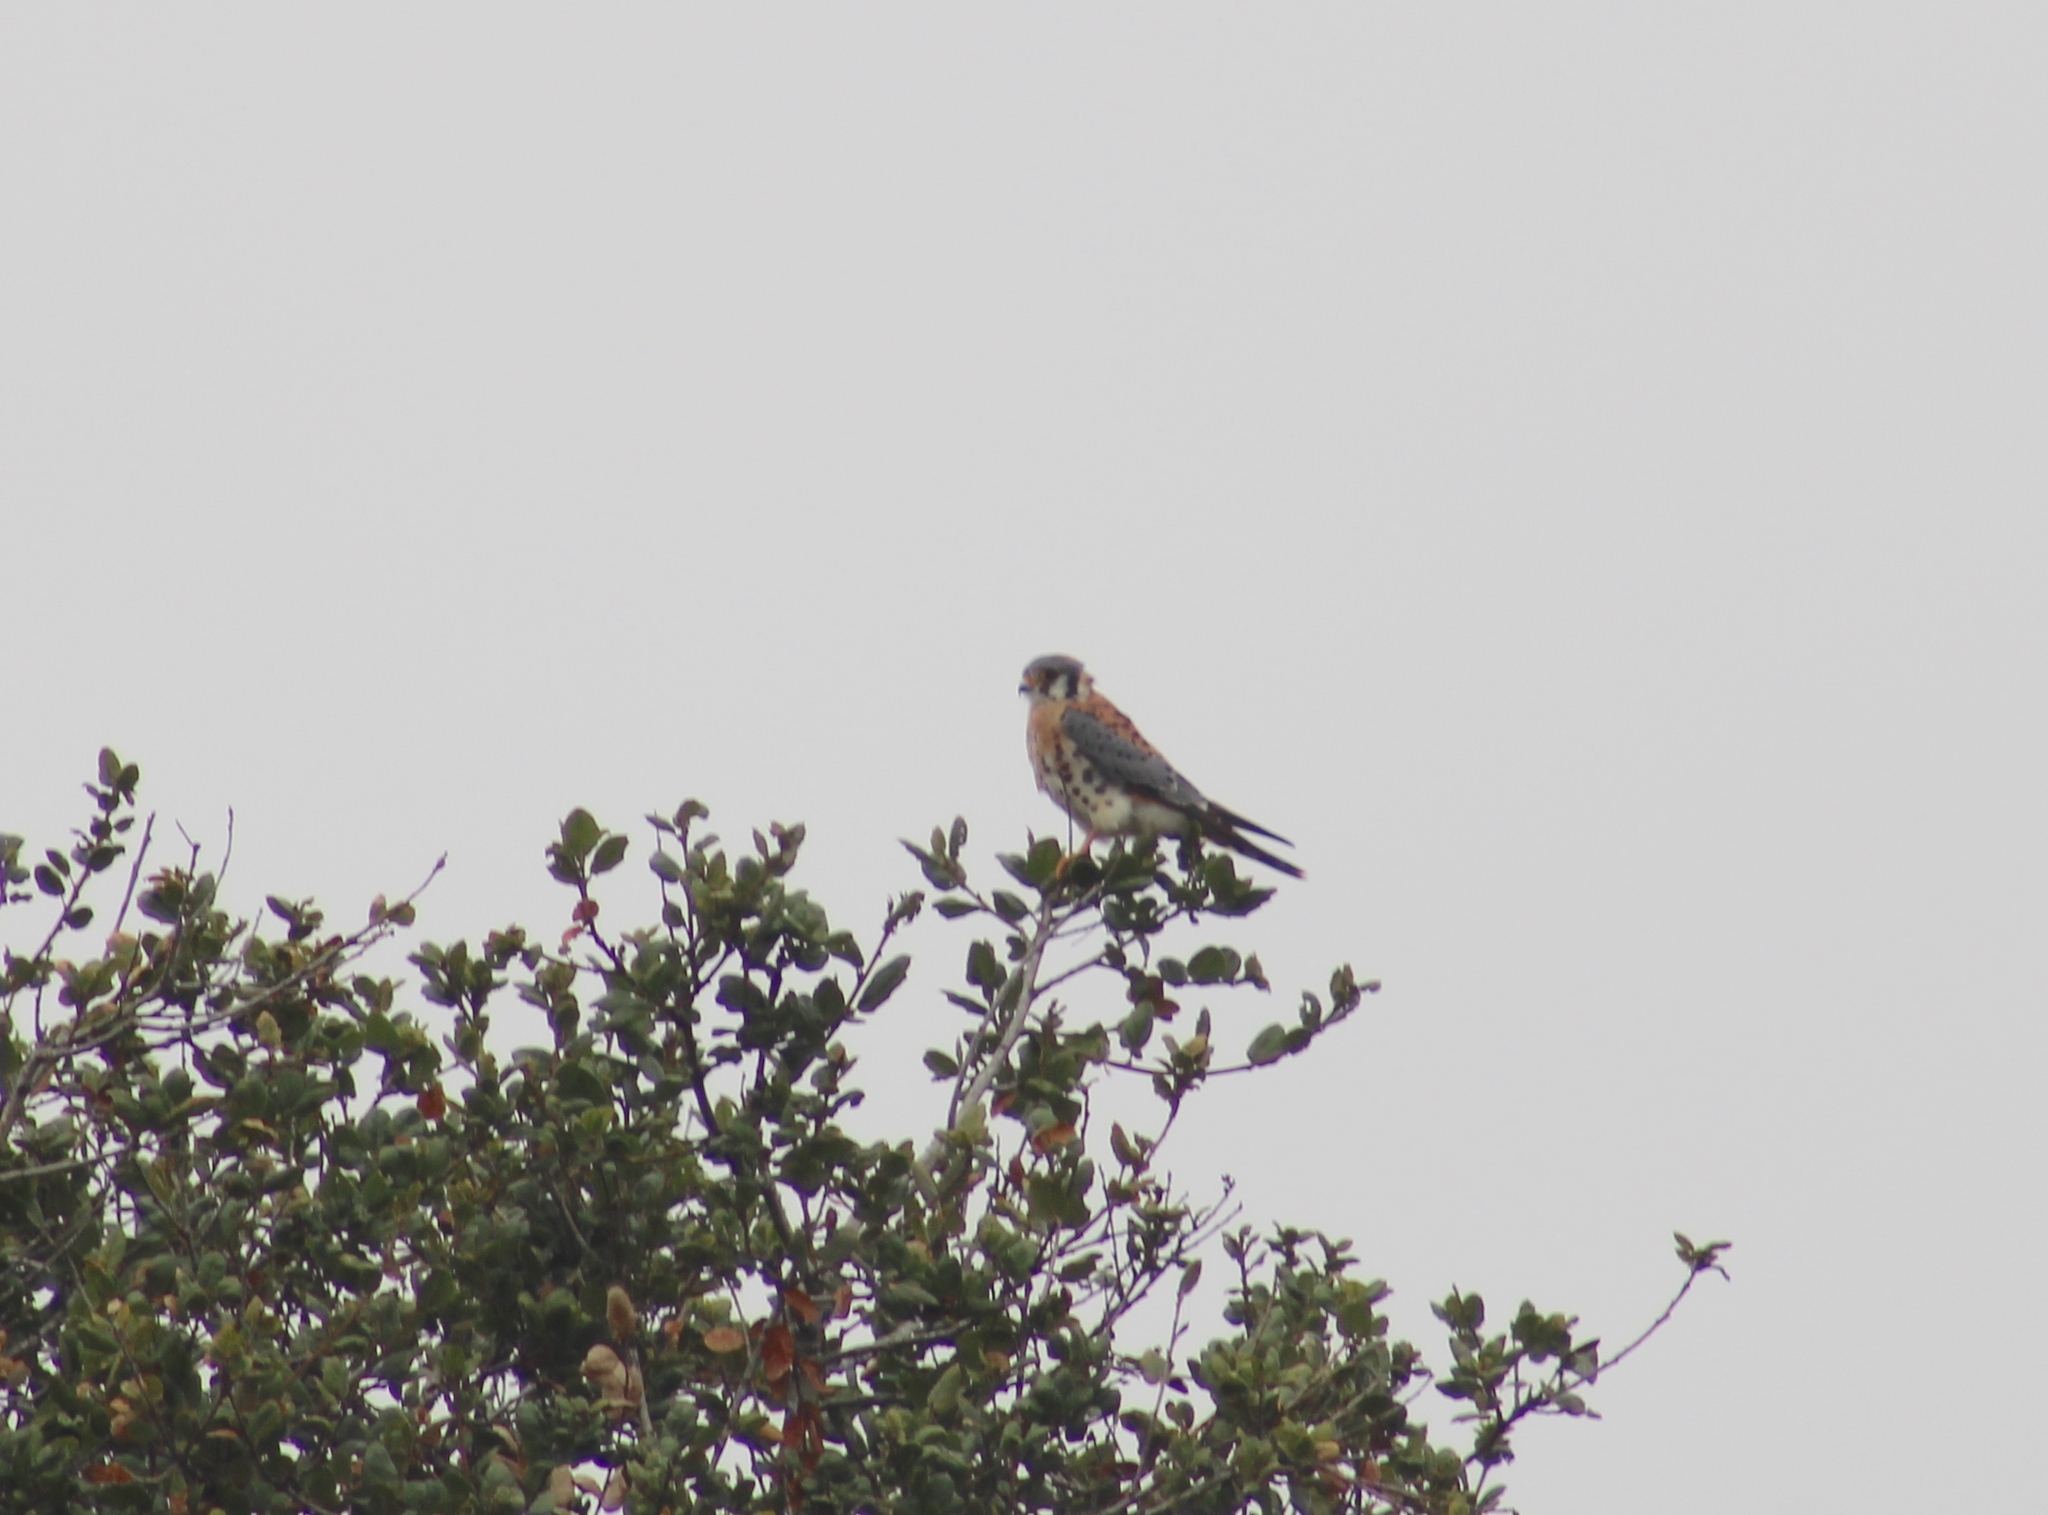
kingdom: Animalia
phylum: Chordata
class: Aves
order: Falconiformes
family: Falconidae
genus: Falco
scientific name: Falco sparverius
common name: American kestrel
